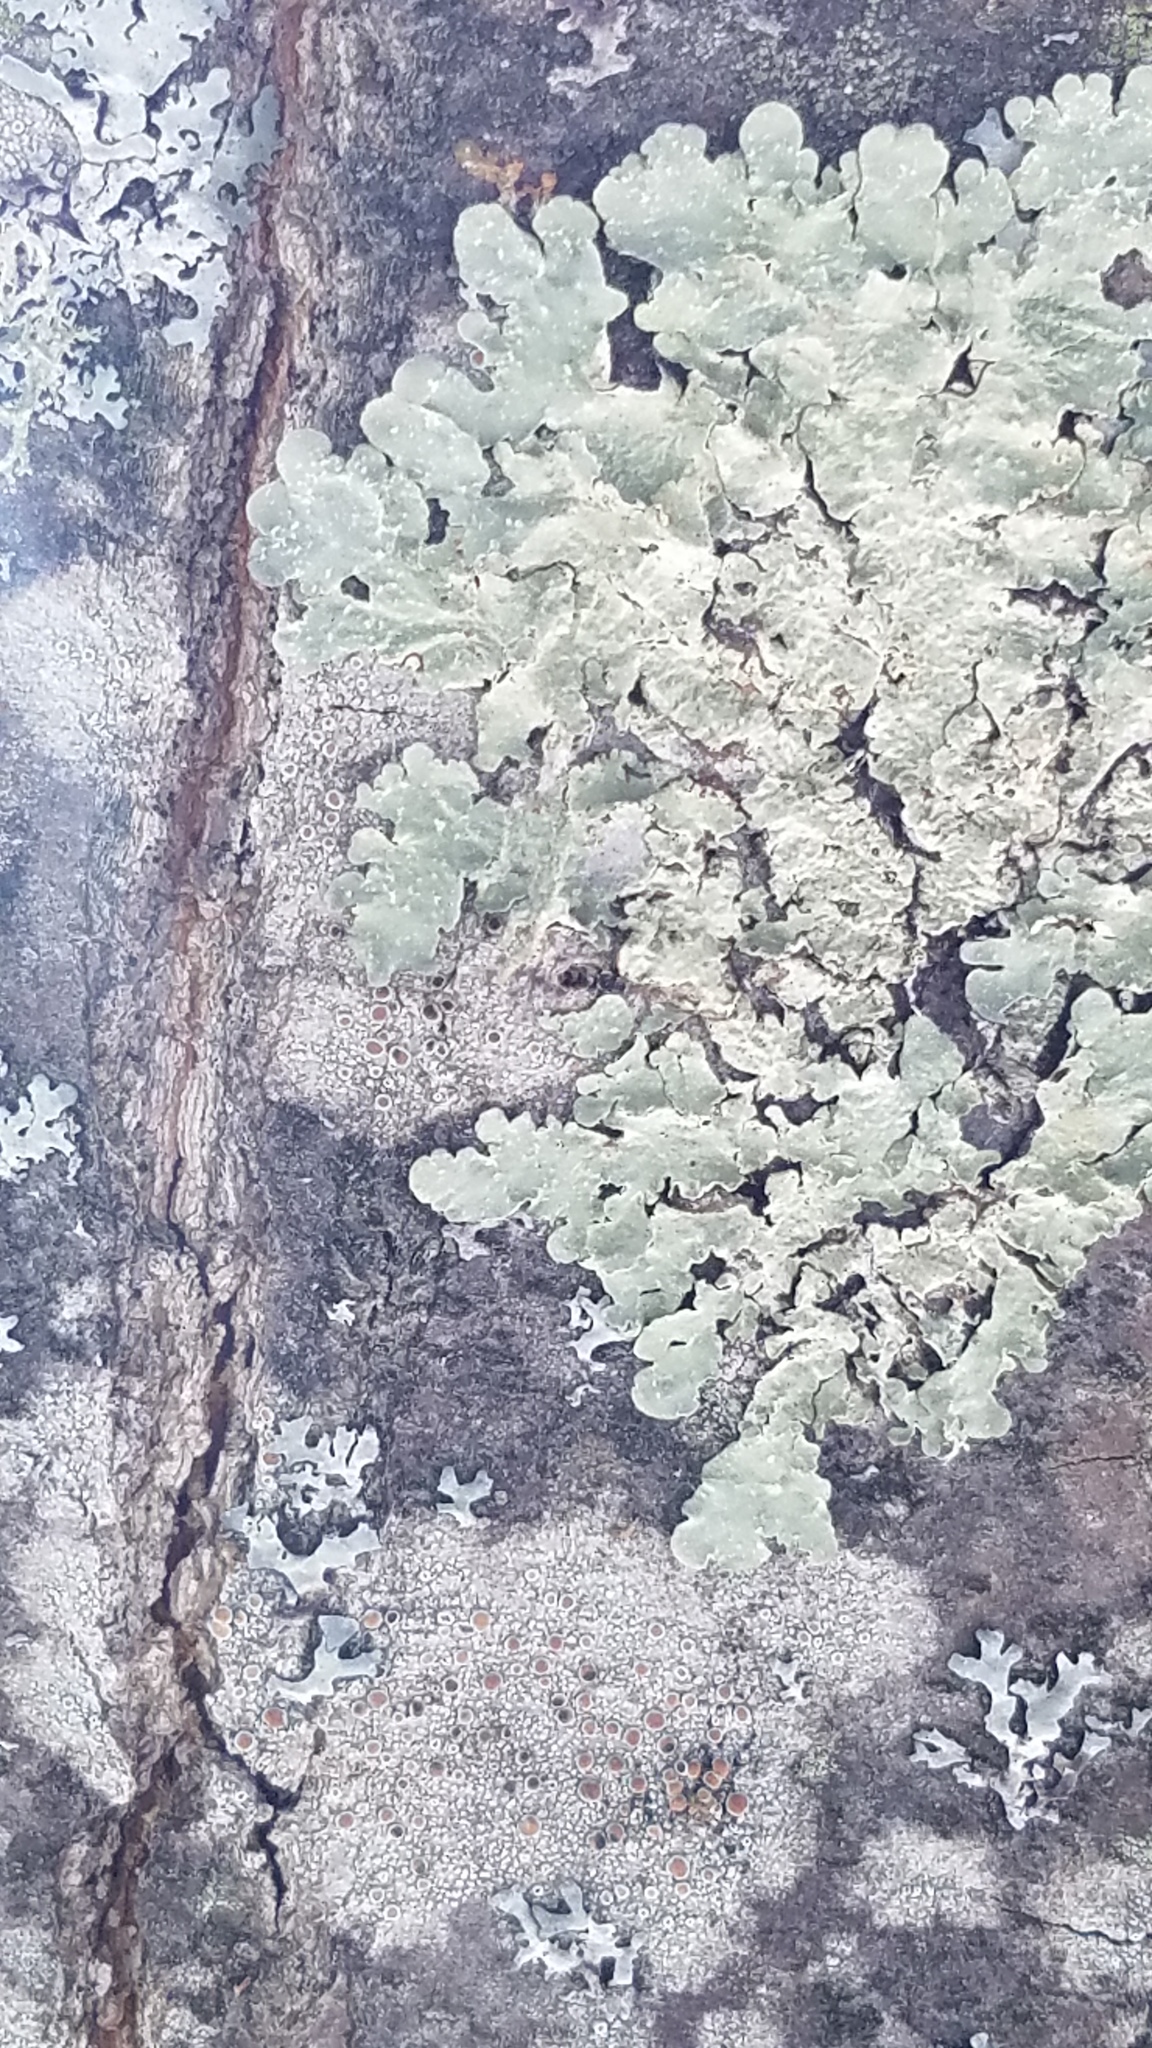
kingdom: Fungi
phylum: Ascomycota
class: Lecanoromycetes
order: Lecanorales
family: Parmeliaceae
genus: Flavoparmelia
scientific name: Flavoparmelia caperata
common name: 40-mile per hour lichen
